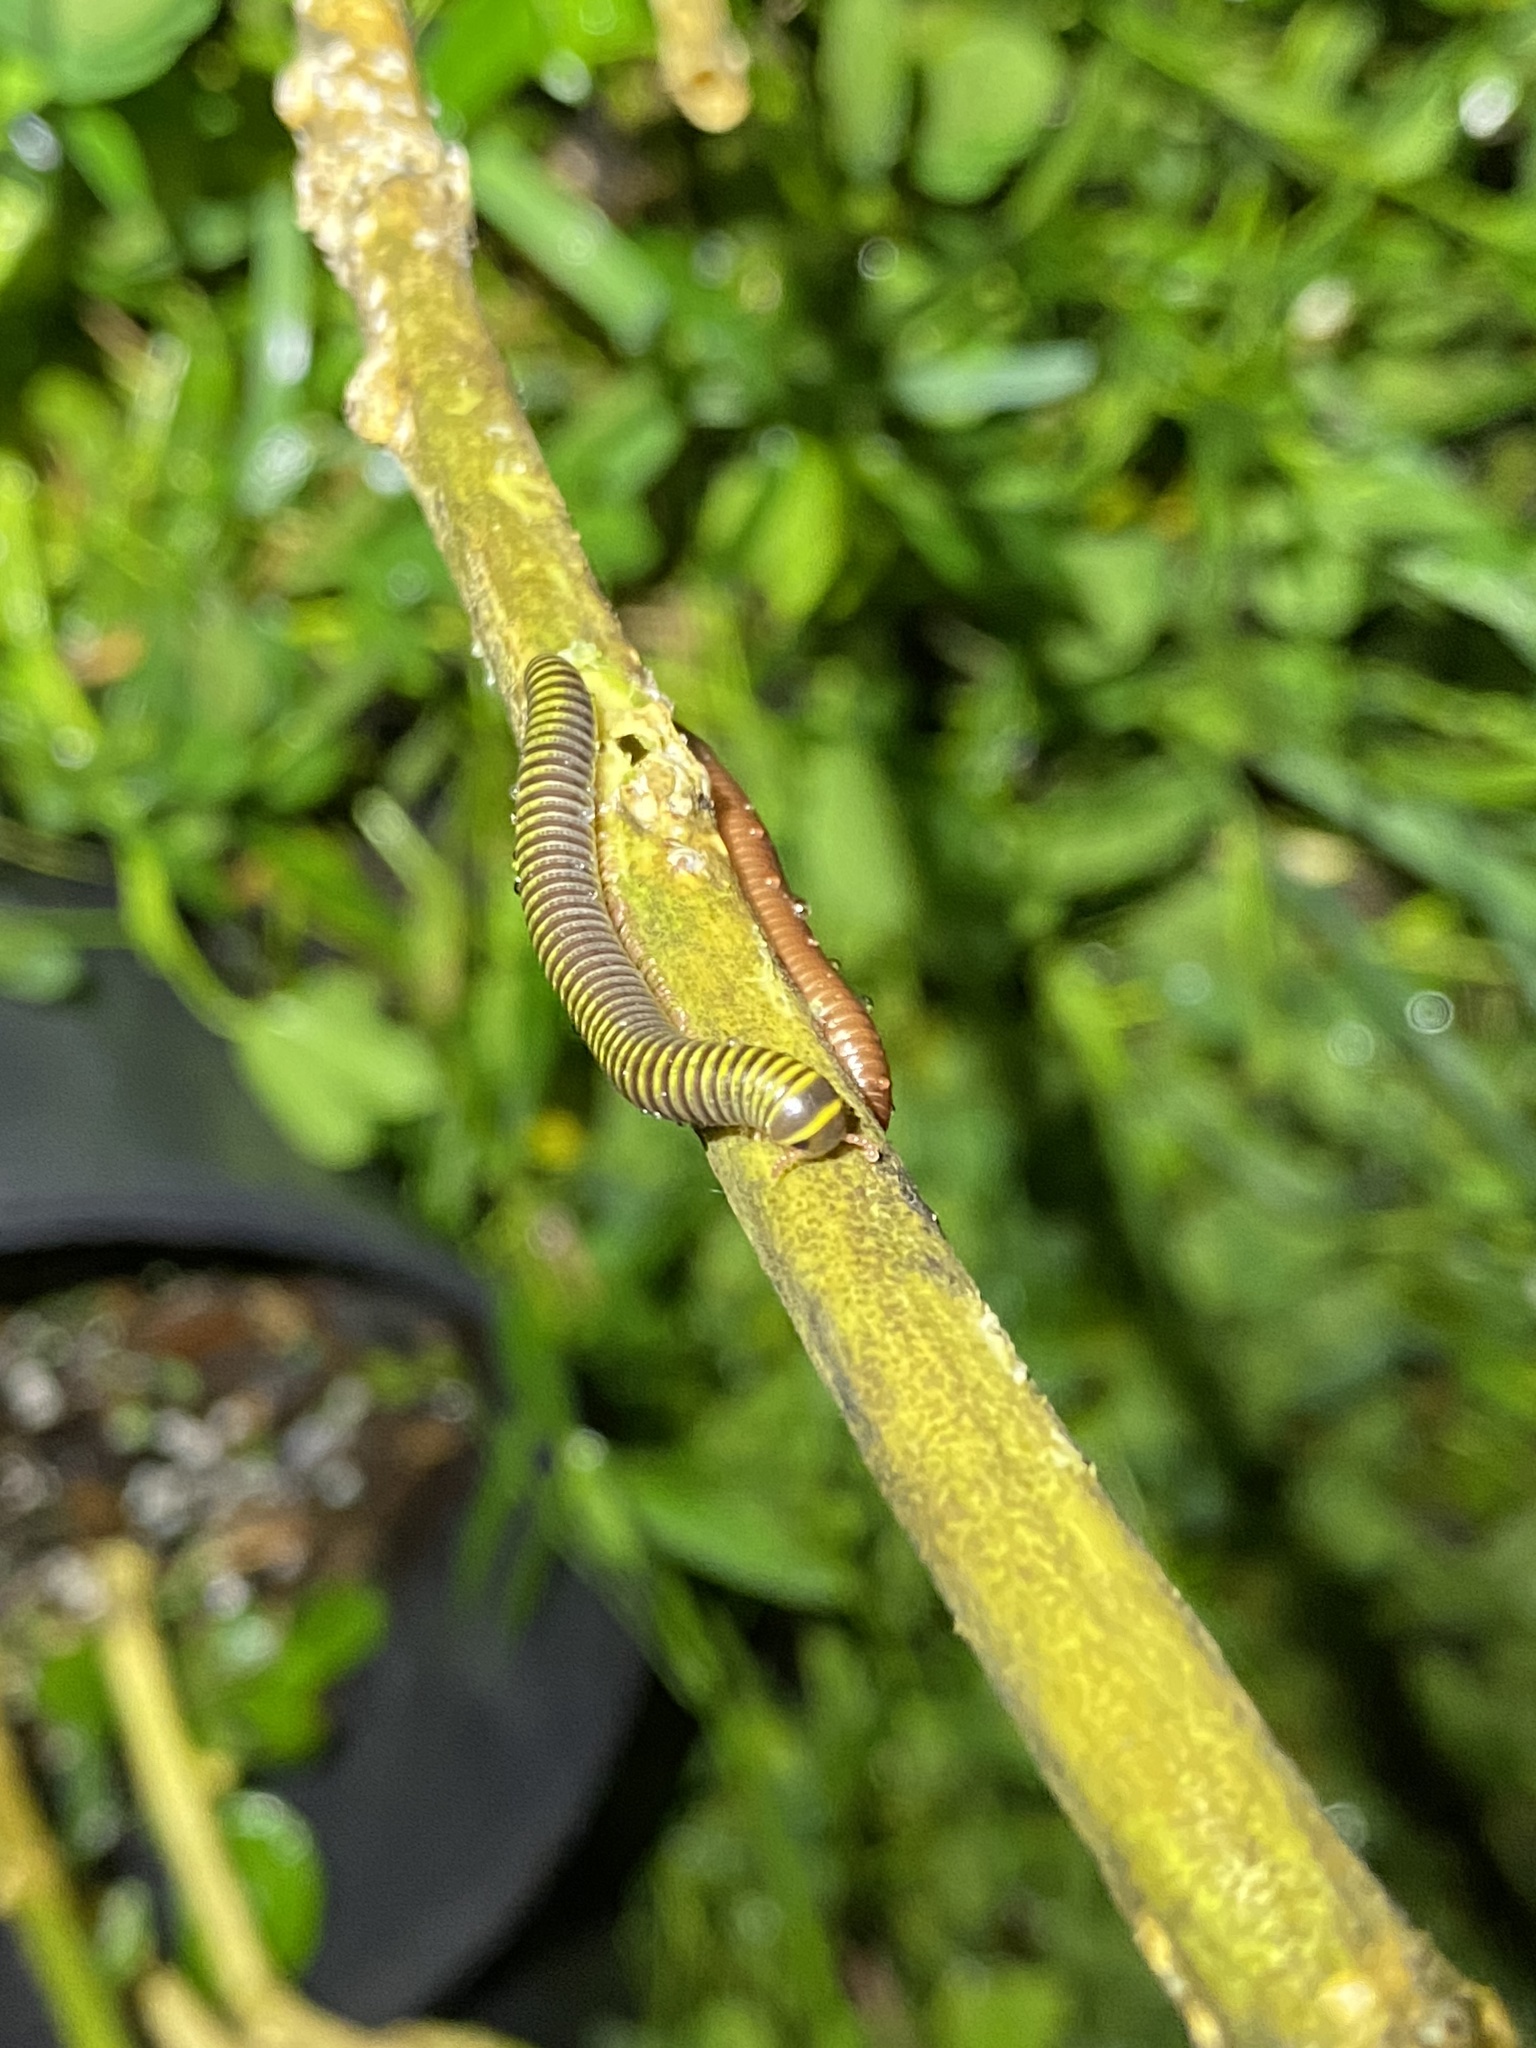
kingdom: Animalia
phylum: Arthropoda
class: Diplopoda
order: Spirobolida
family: Rhinocricidae
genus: Anadenobolus
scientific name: Anadenobolus monilicornis
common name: Caribbean millipede
